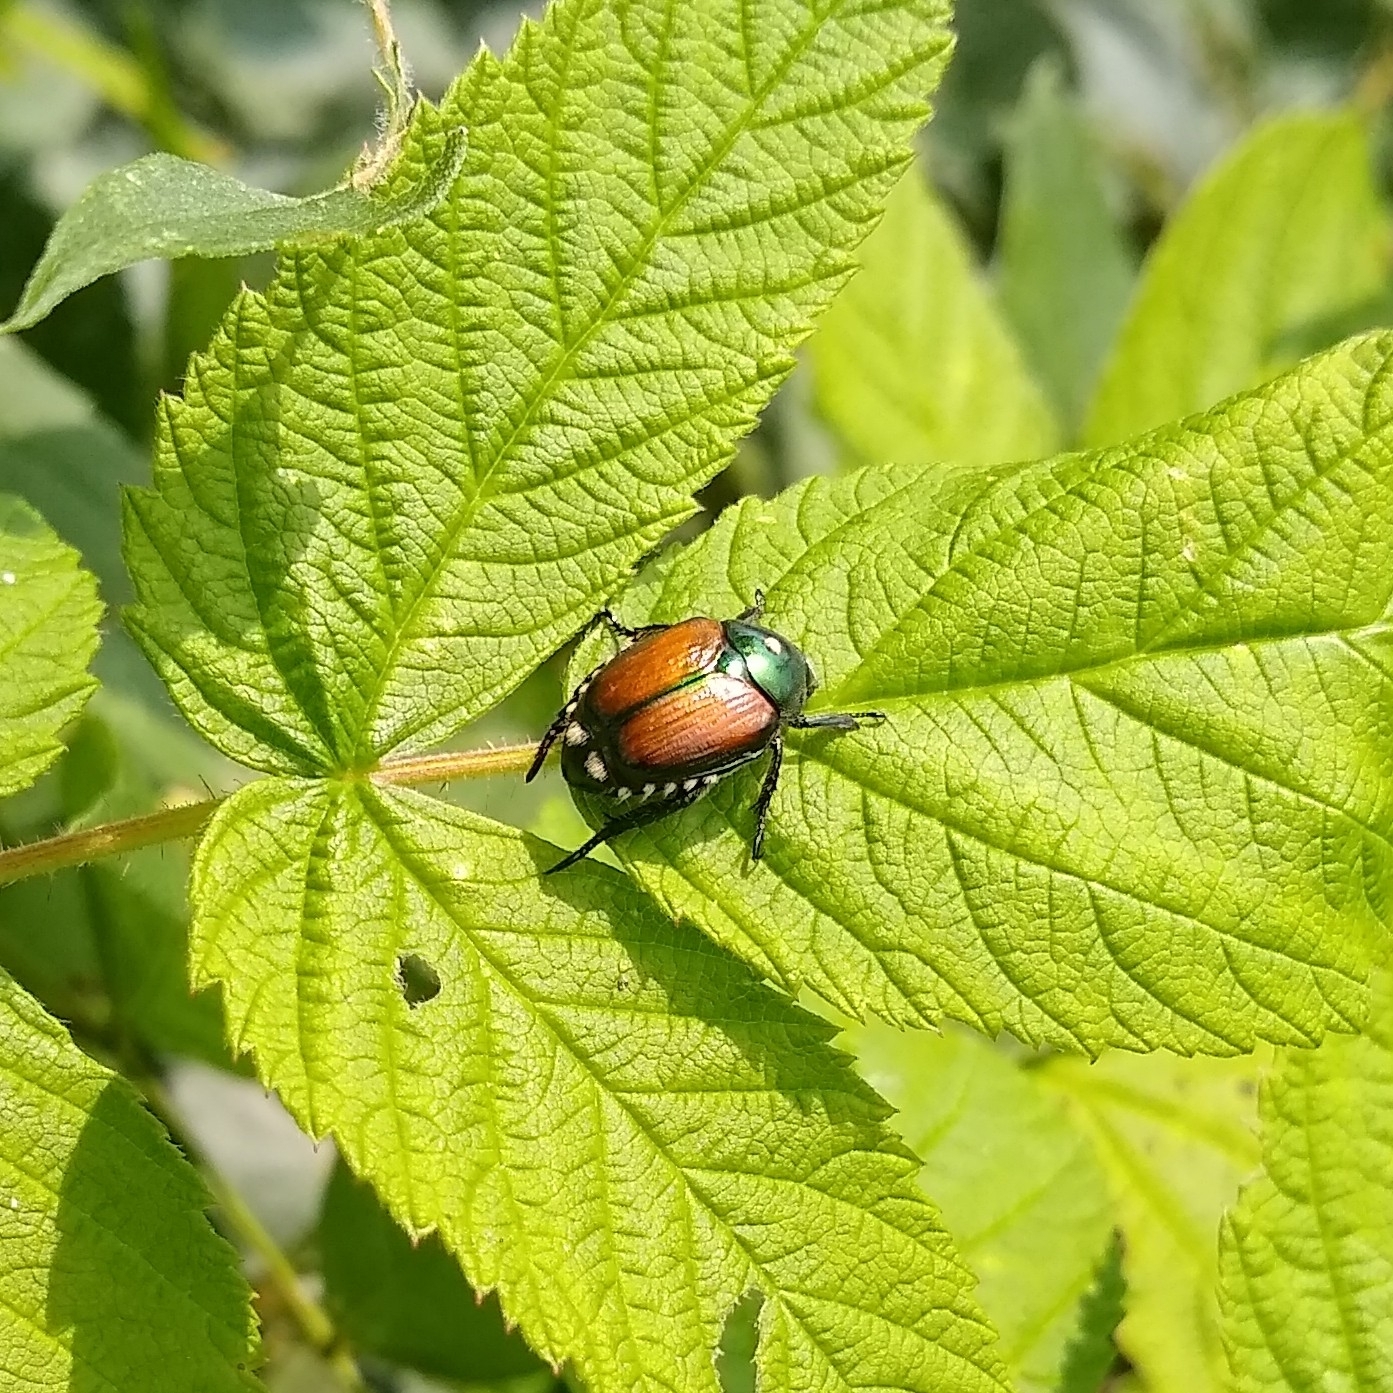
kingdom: Animalia
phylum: Arthropoda
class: Insecta
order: Diptera
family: Tachinidae
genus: Istocheta
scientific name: Istocheta aldrichi
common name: Parasitic wasp
